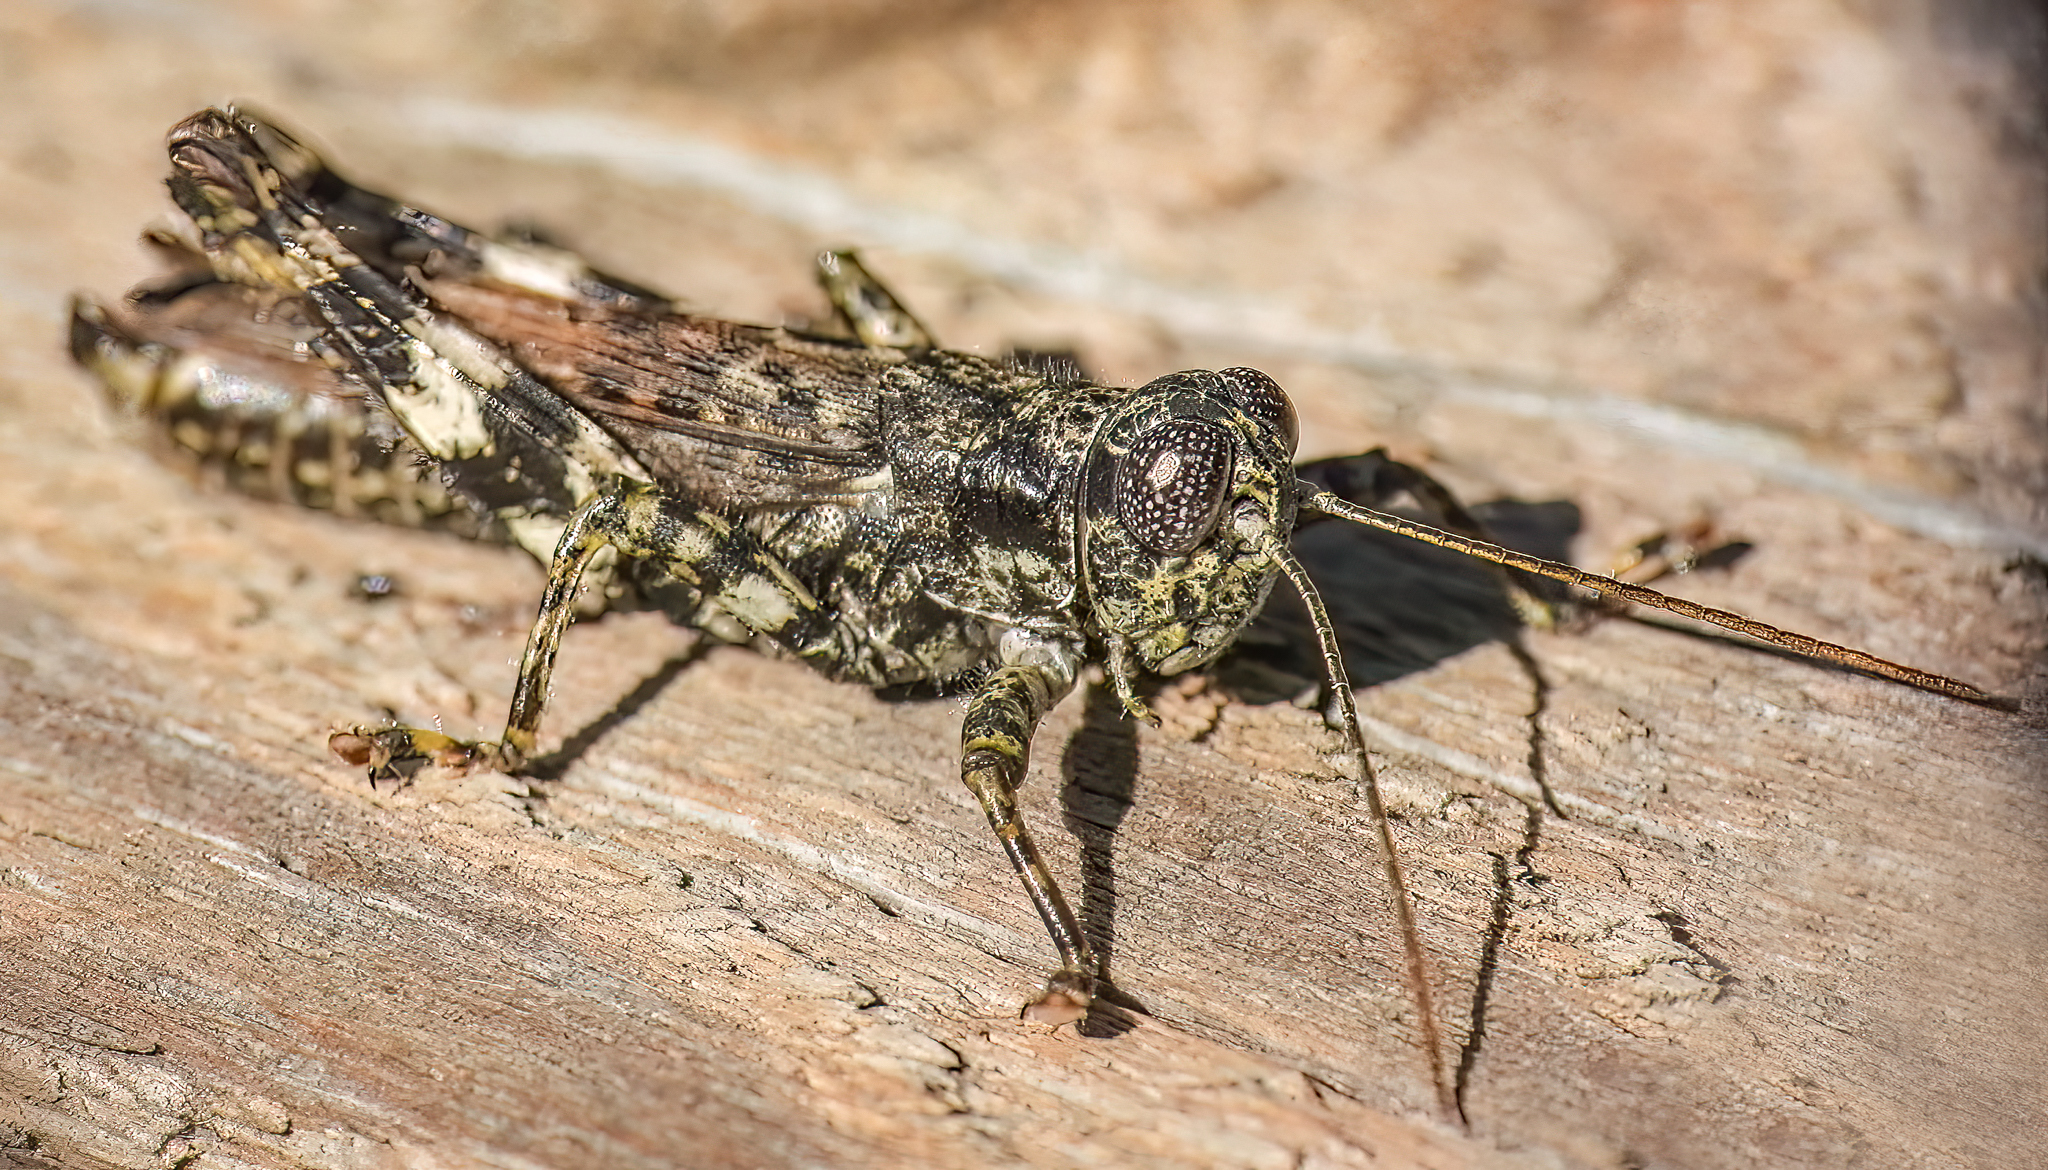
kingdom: Animalia
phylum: Arthropoda
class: Insecta
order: Orthoptera
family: Acrididae
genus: Melanoplus
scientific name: Melanoplus punctulatus
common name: Pine-tree spur-throat grasshopper
